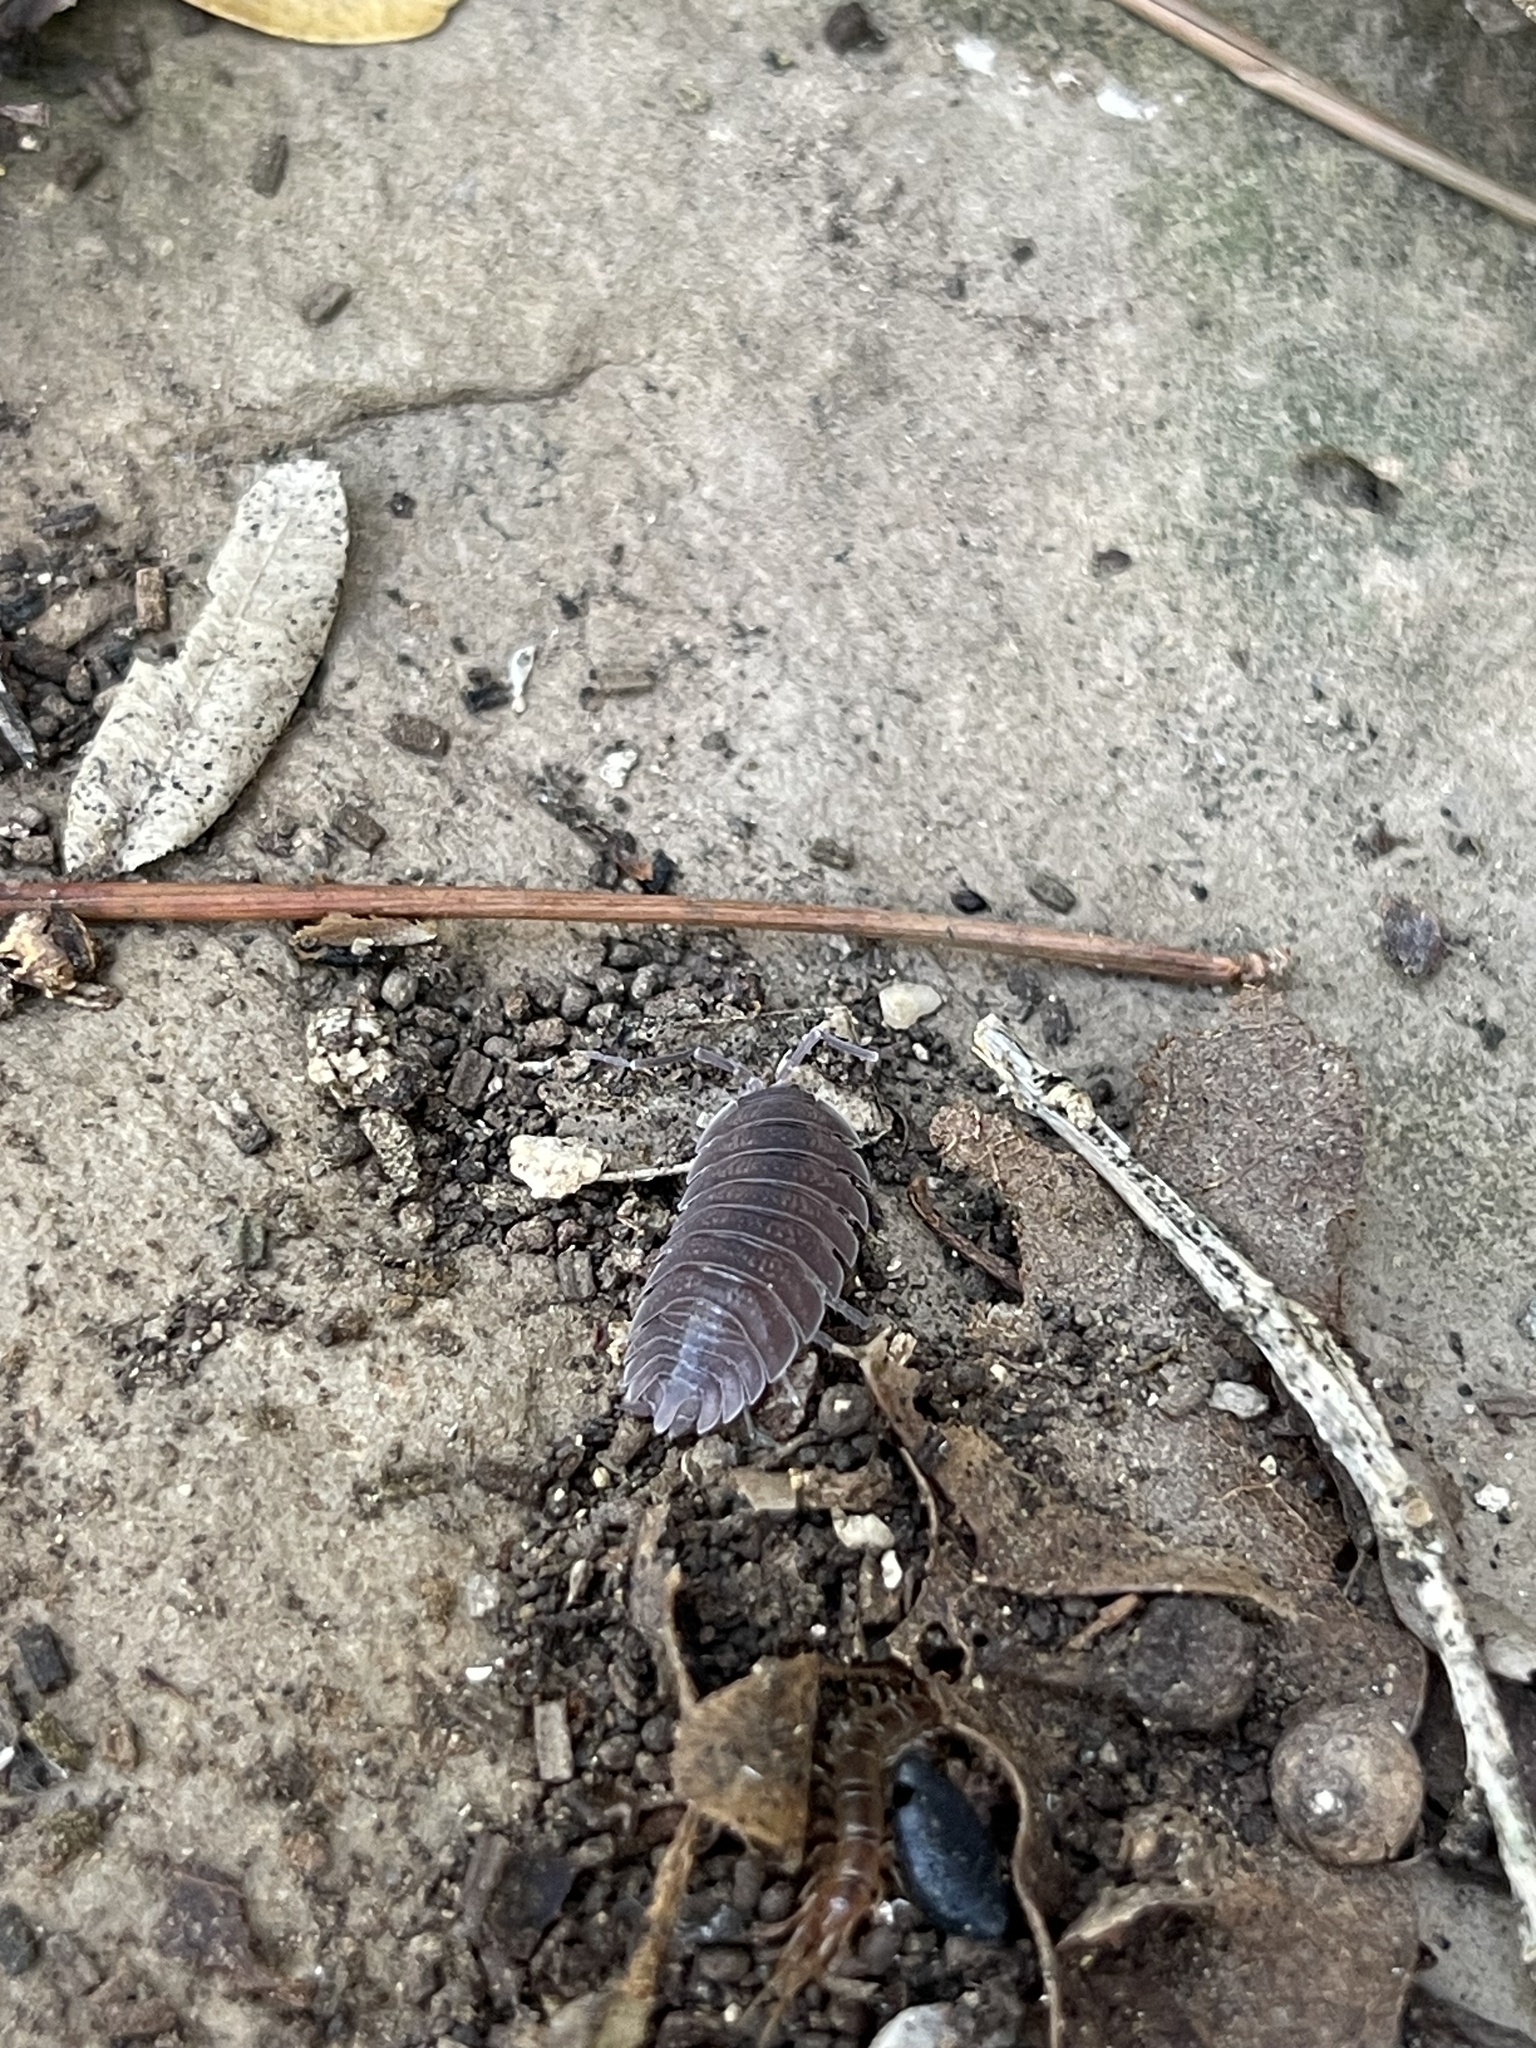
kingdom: Animalia
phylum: Arthropoda
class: Malacostraca
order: Isopoda
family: Porcellionidae
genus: Porcellio
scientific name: Porcellio incanus
